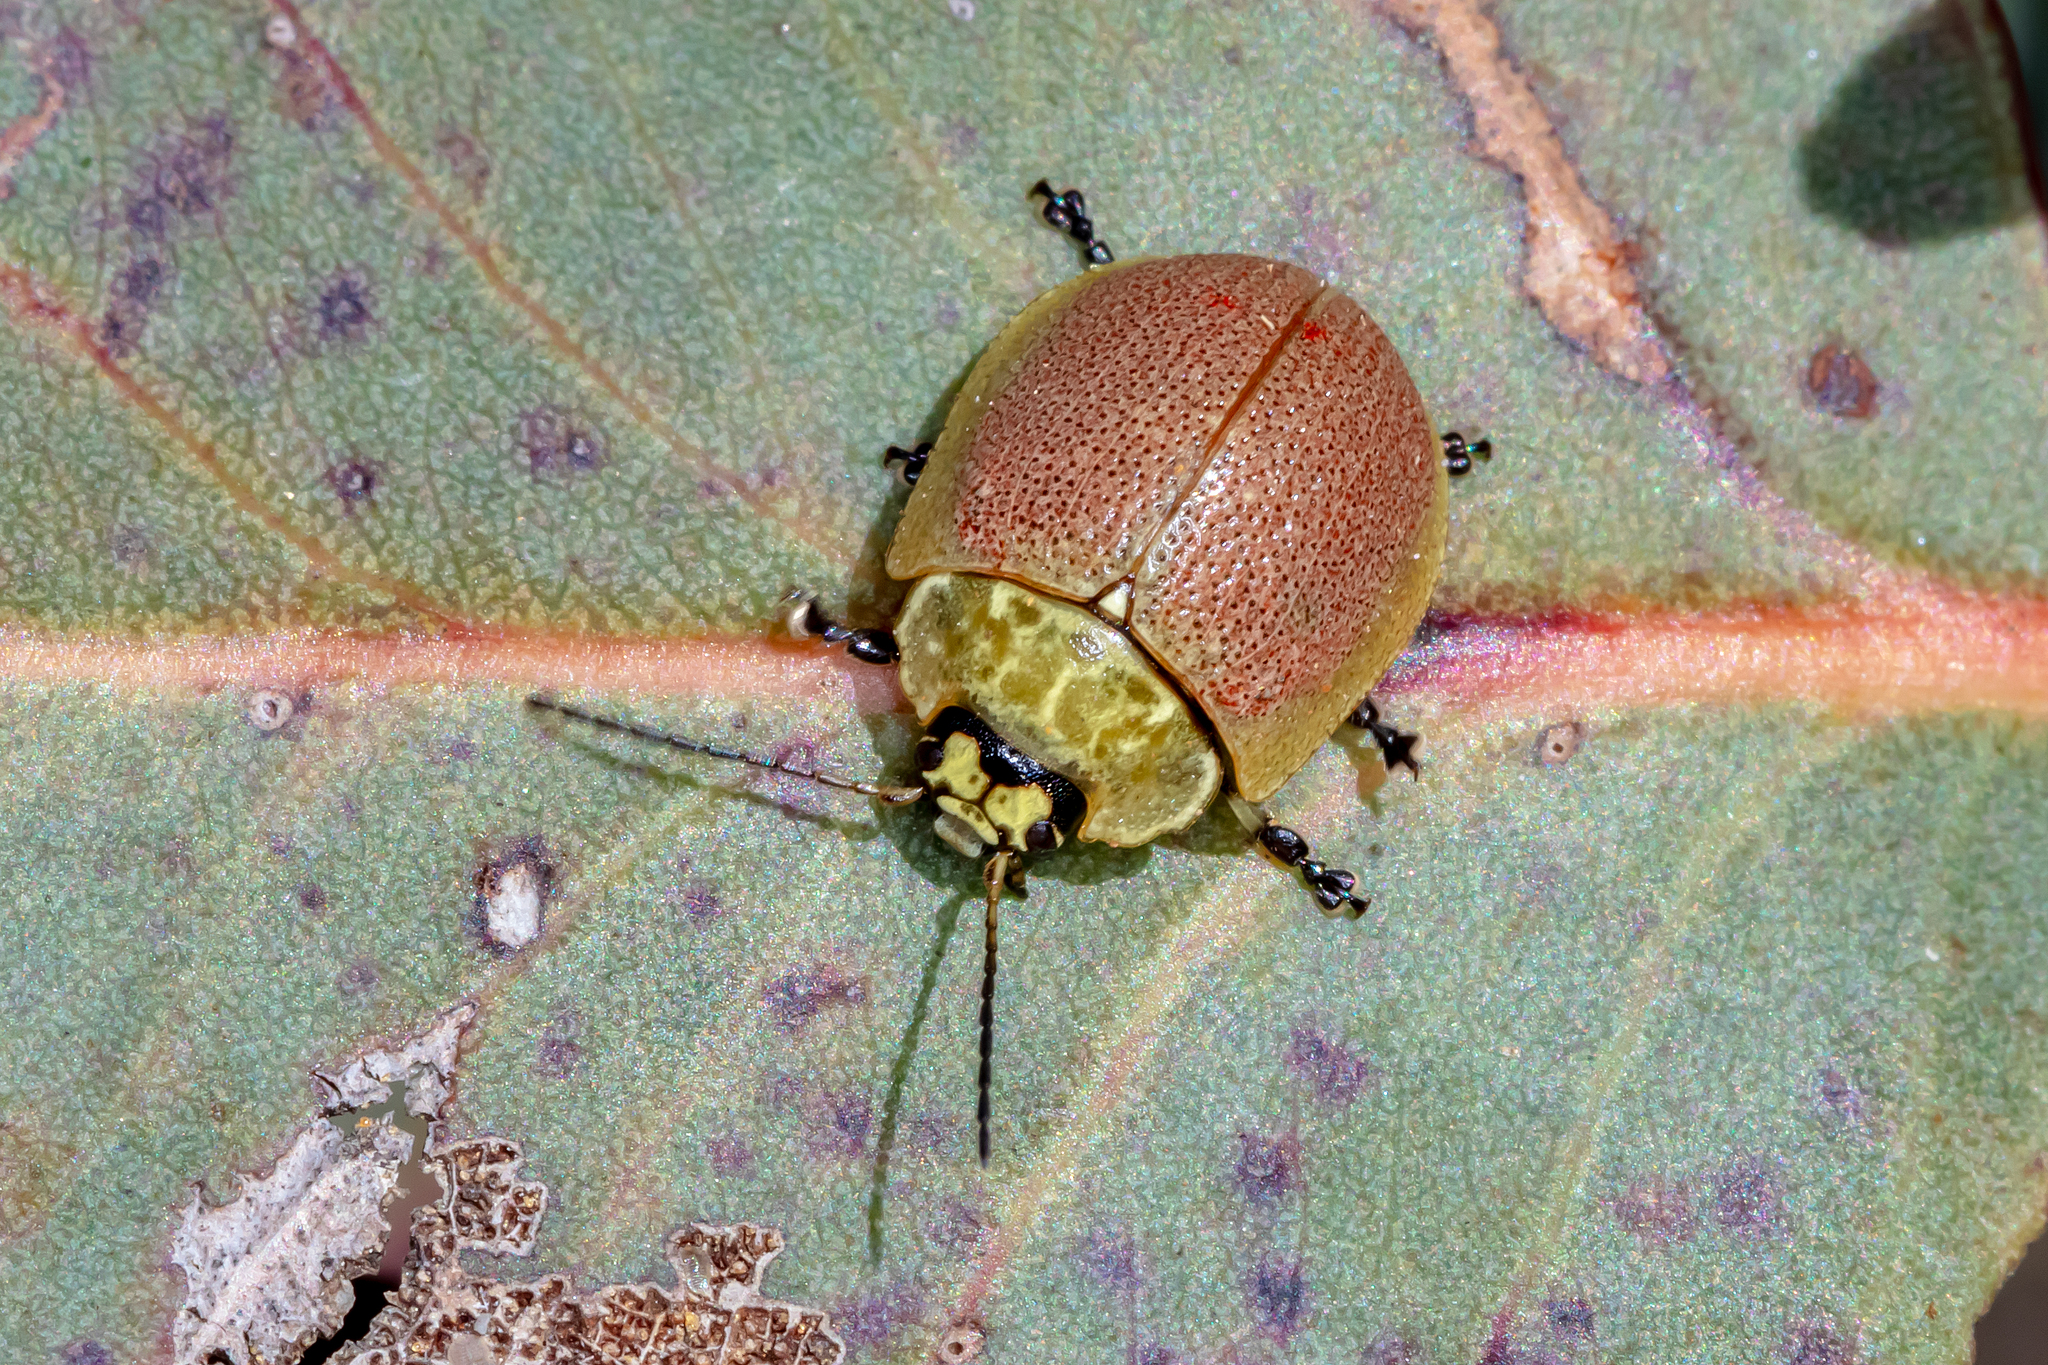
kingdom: Animalia
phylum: Arthropoda
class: Insecta
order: Coleoptera
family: Chrysomelidae
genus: Paropsis
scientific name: Paropsis
